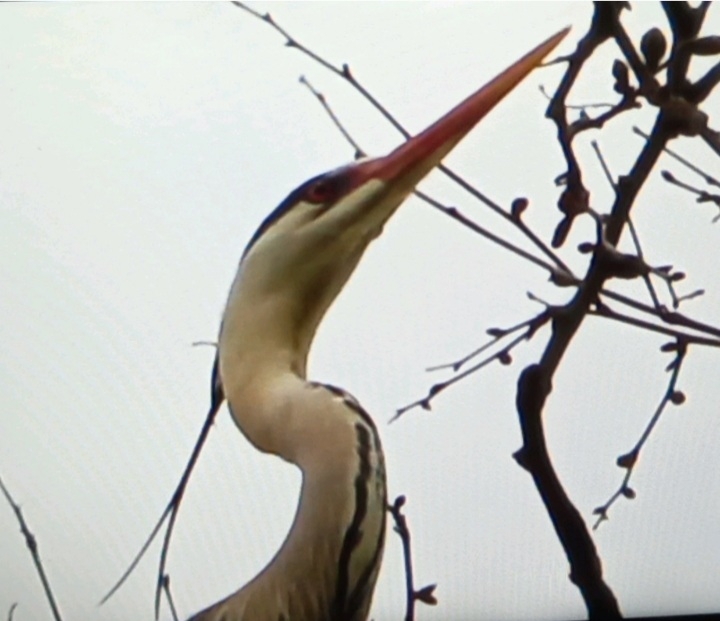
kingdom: Animalia
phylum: Chordata
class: Aves
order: Pelecaniformes
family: Ardeidae
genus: Ardea
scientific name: Ardea cinerea
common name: Grey heron
